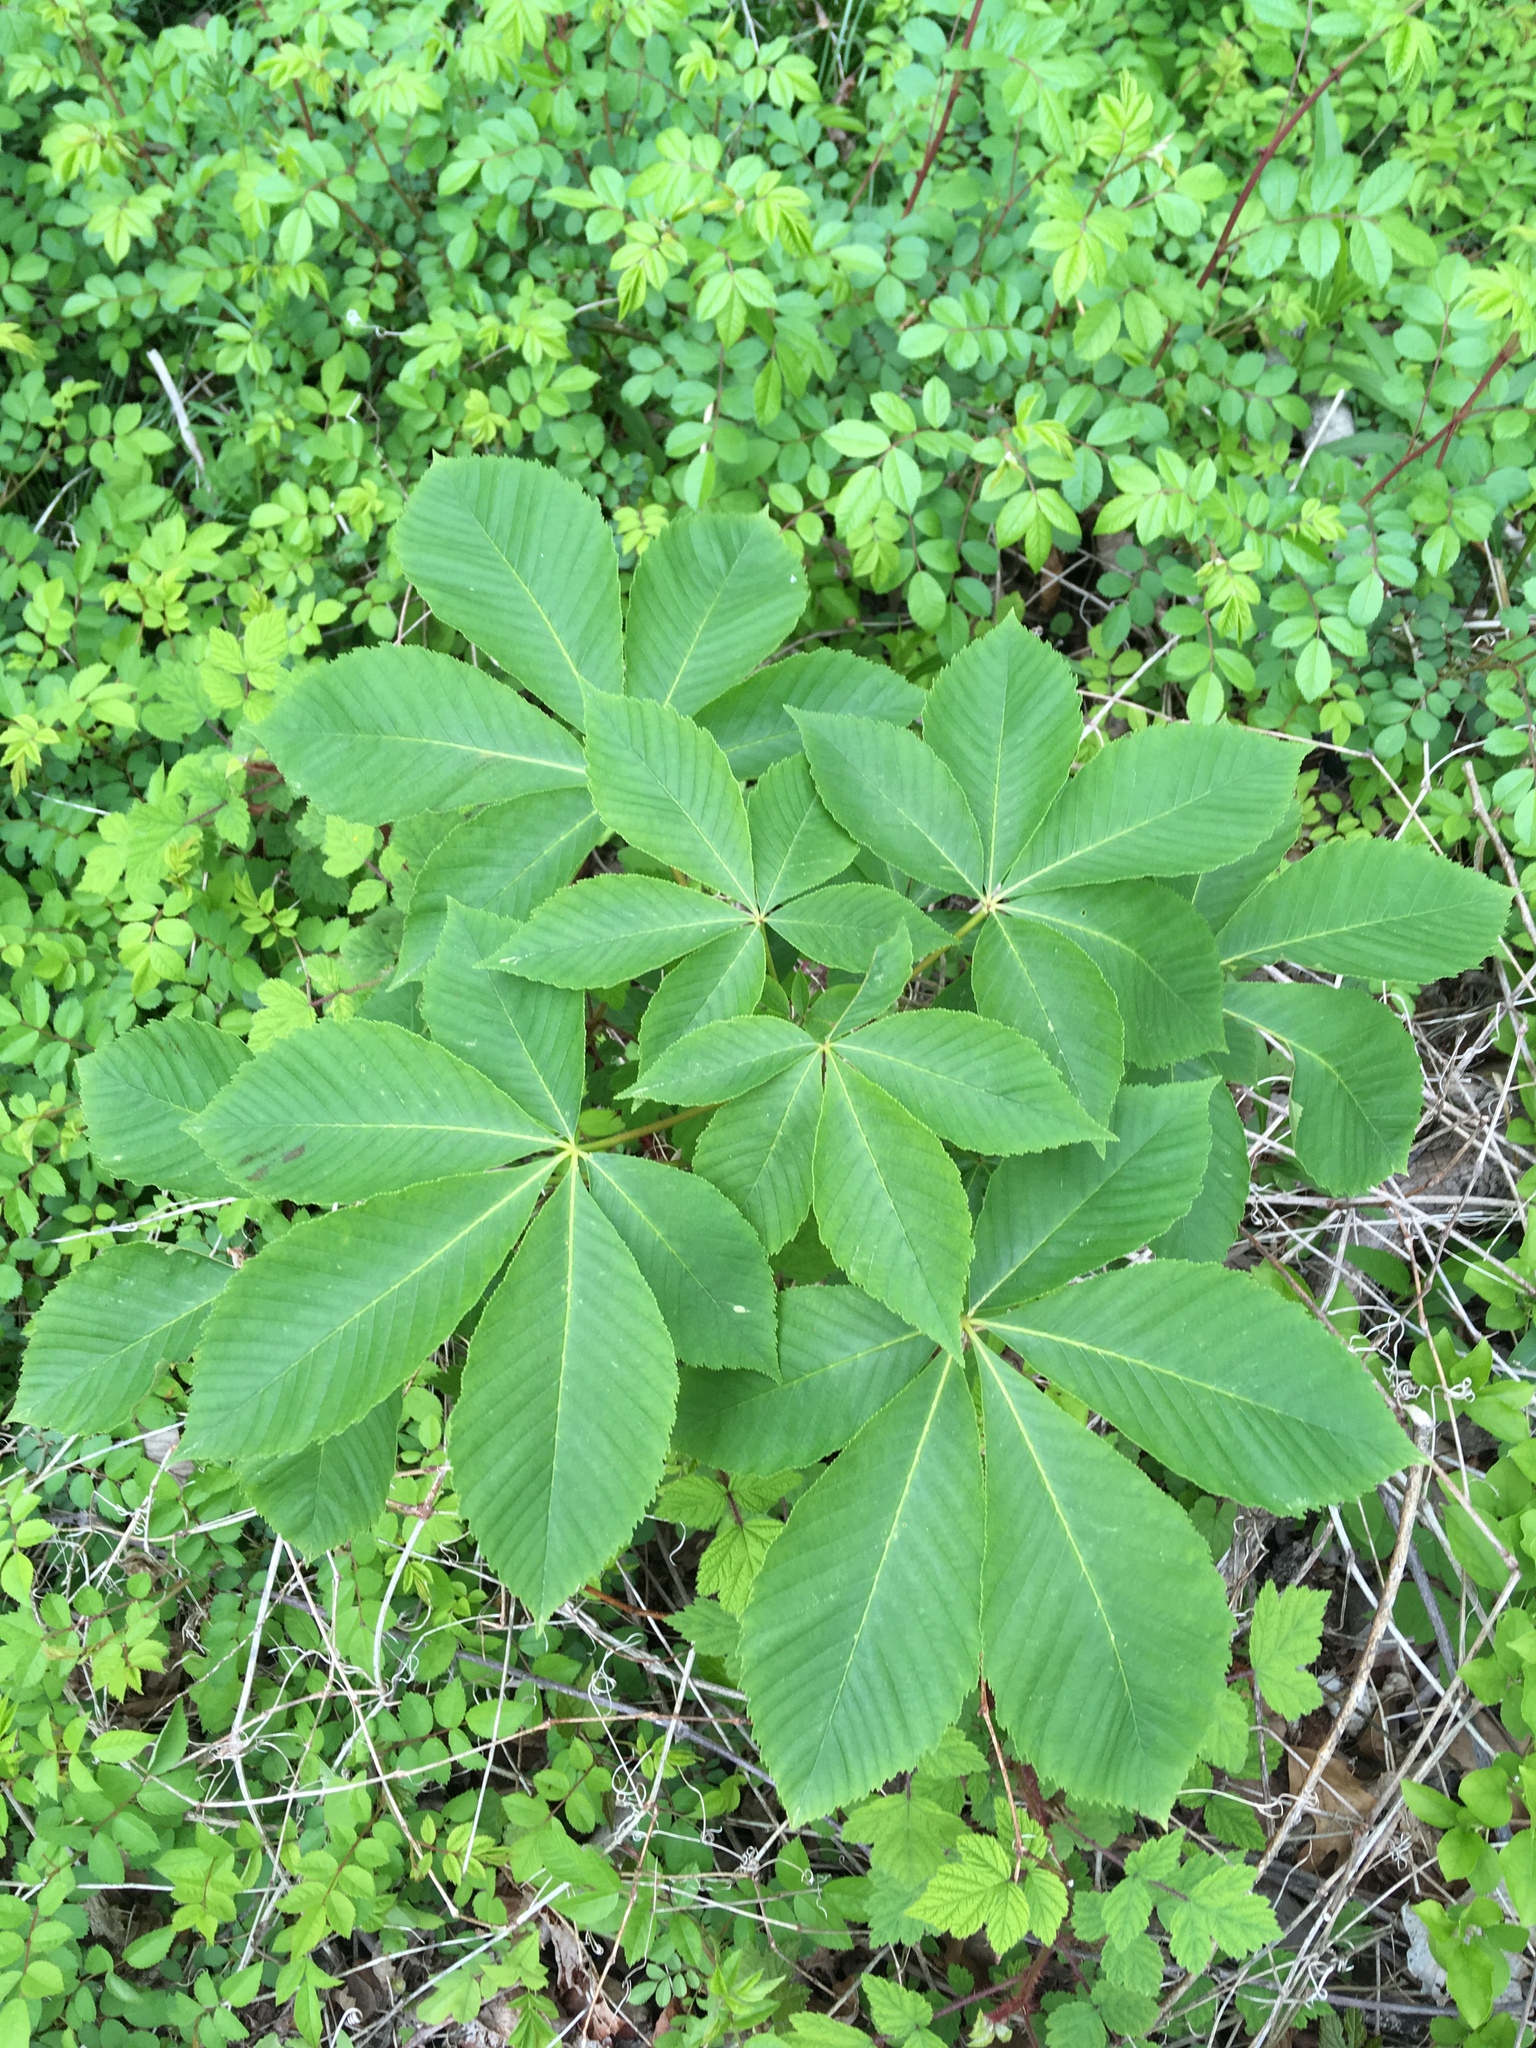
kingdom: Plantae
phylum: Tracheophyta
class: Magnoliopsida
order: Sapindales
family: Sapindaceae
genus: Aesculus
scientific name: Aesculus glabra
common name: Ohio buckeye
